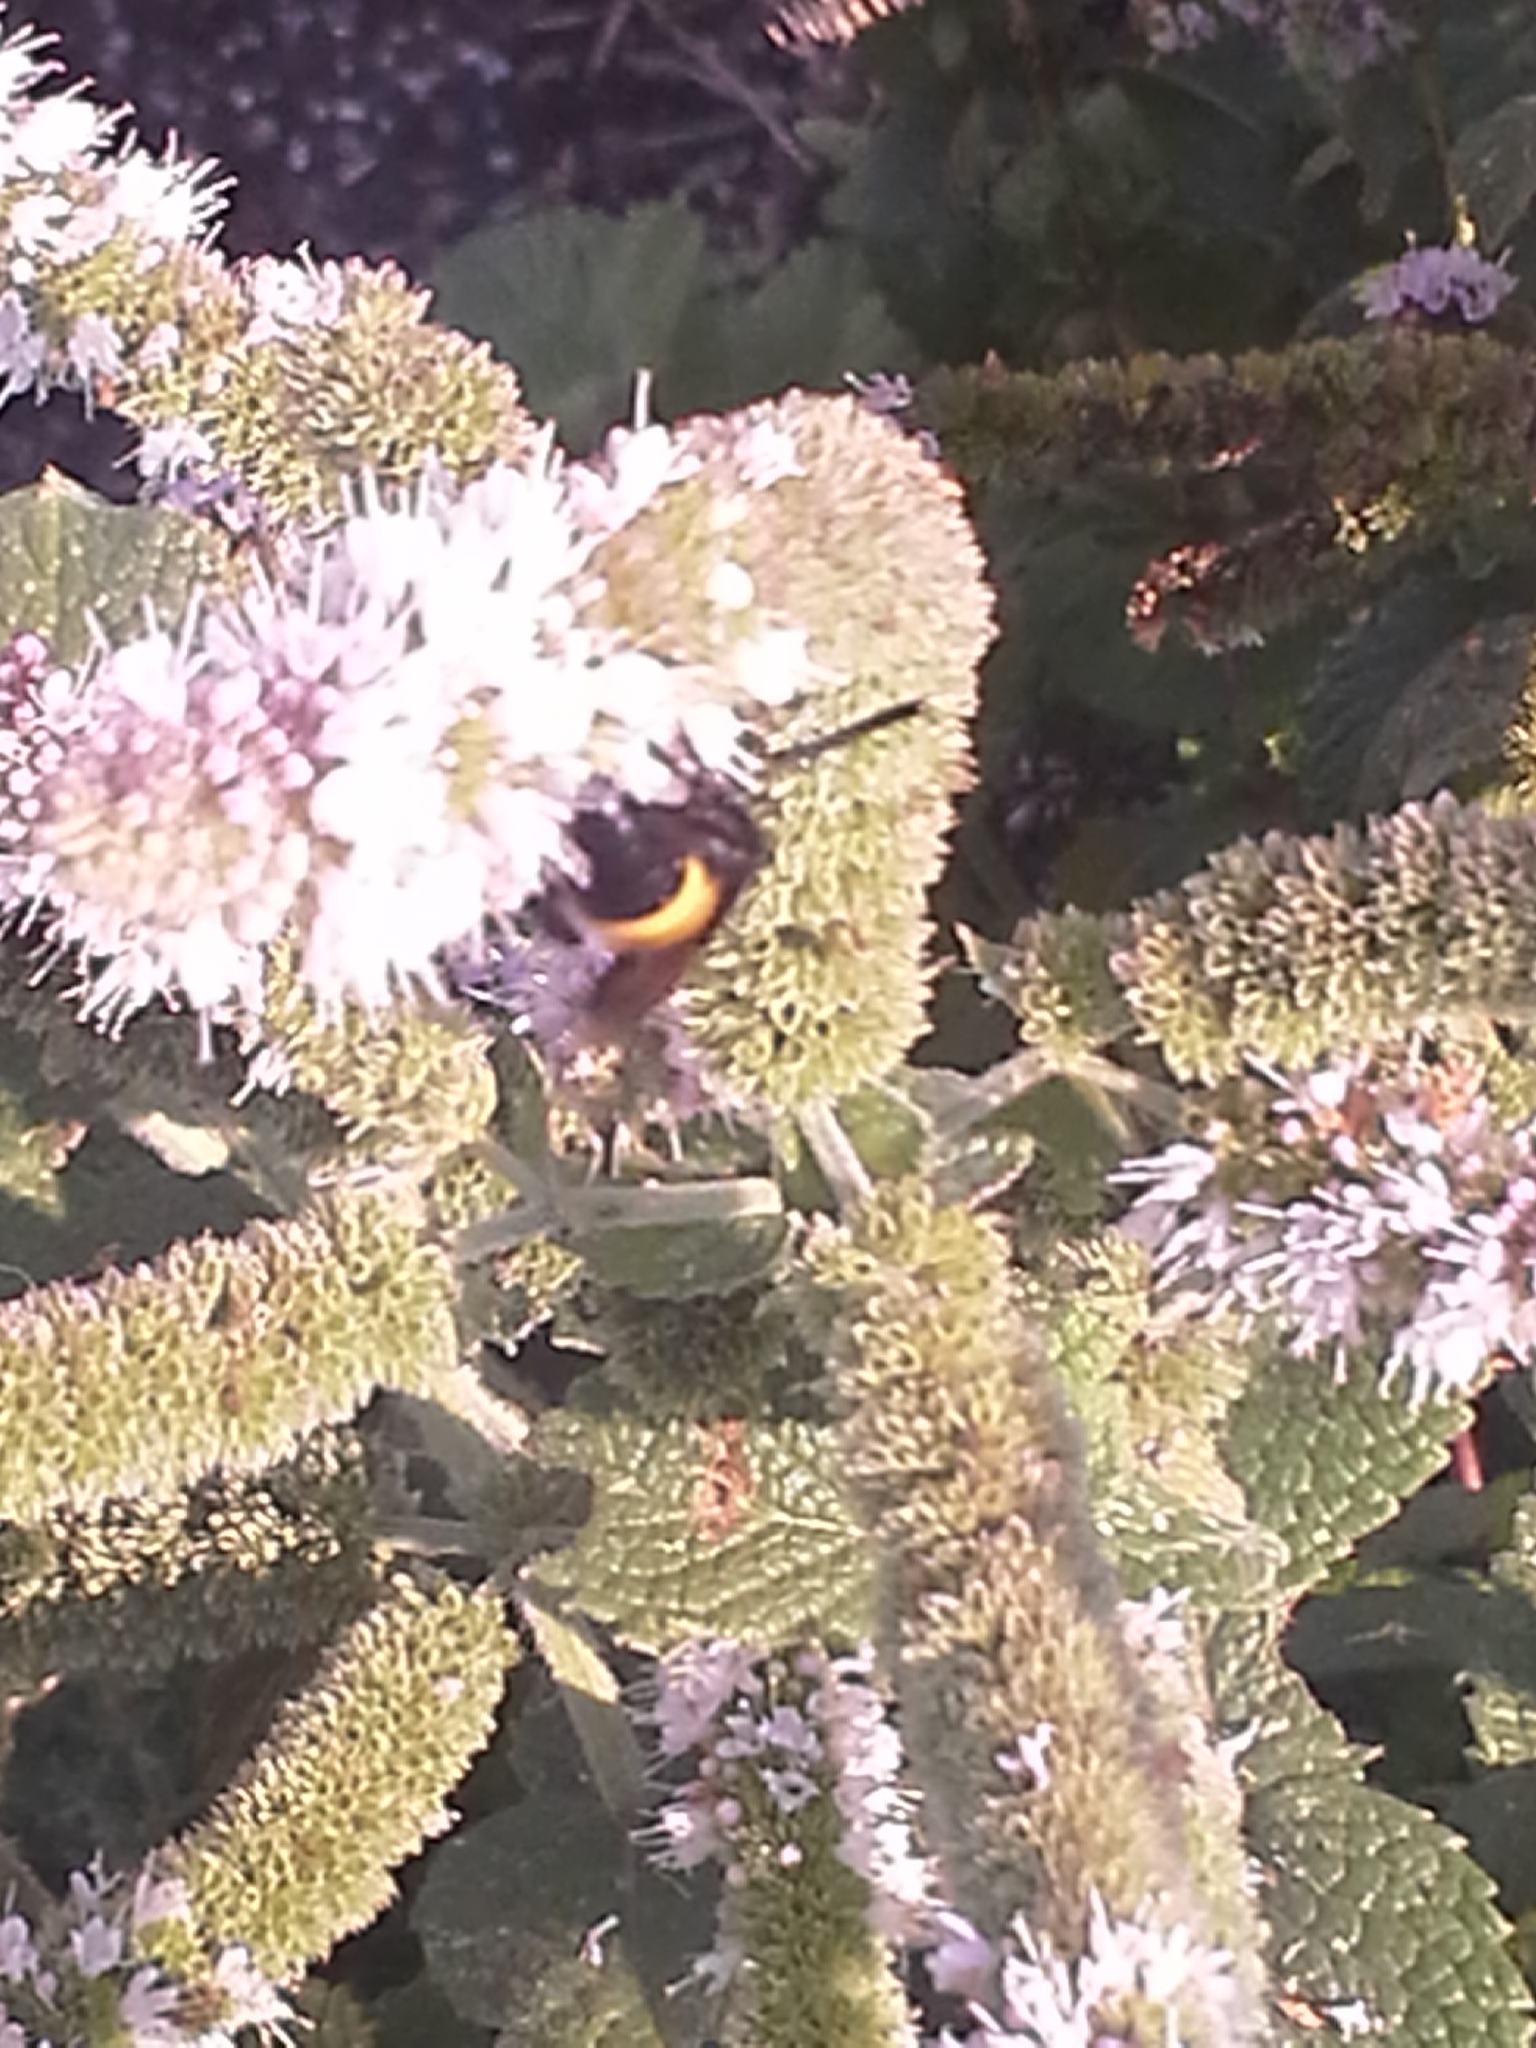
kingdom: Animalia
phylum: Arthropoda
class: Insecta
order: Hymenoptera
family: Scoliidae
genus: Scolia
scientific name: Scolia hirta
